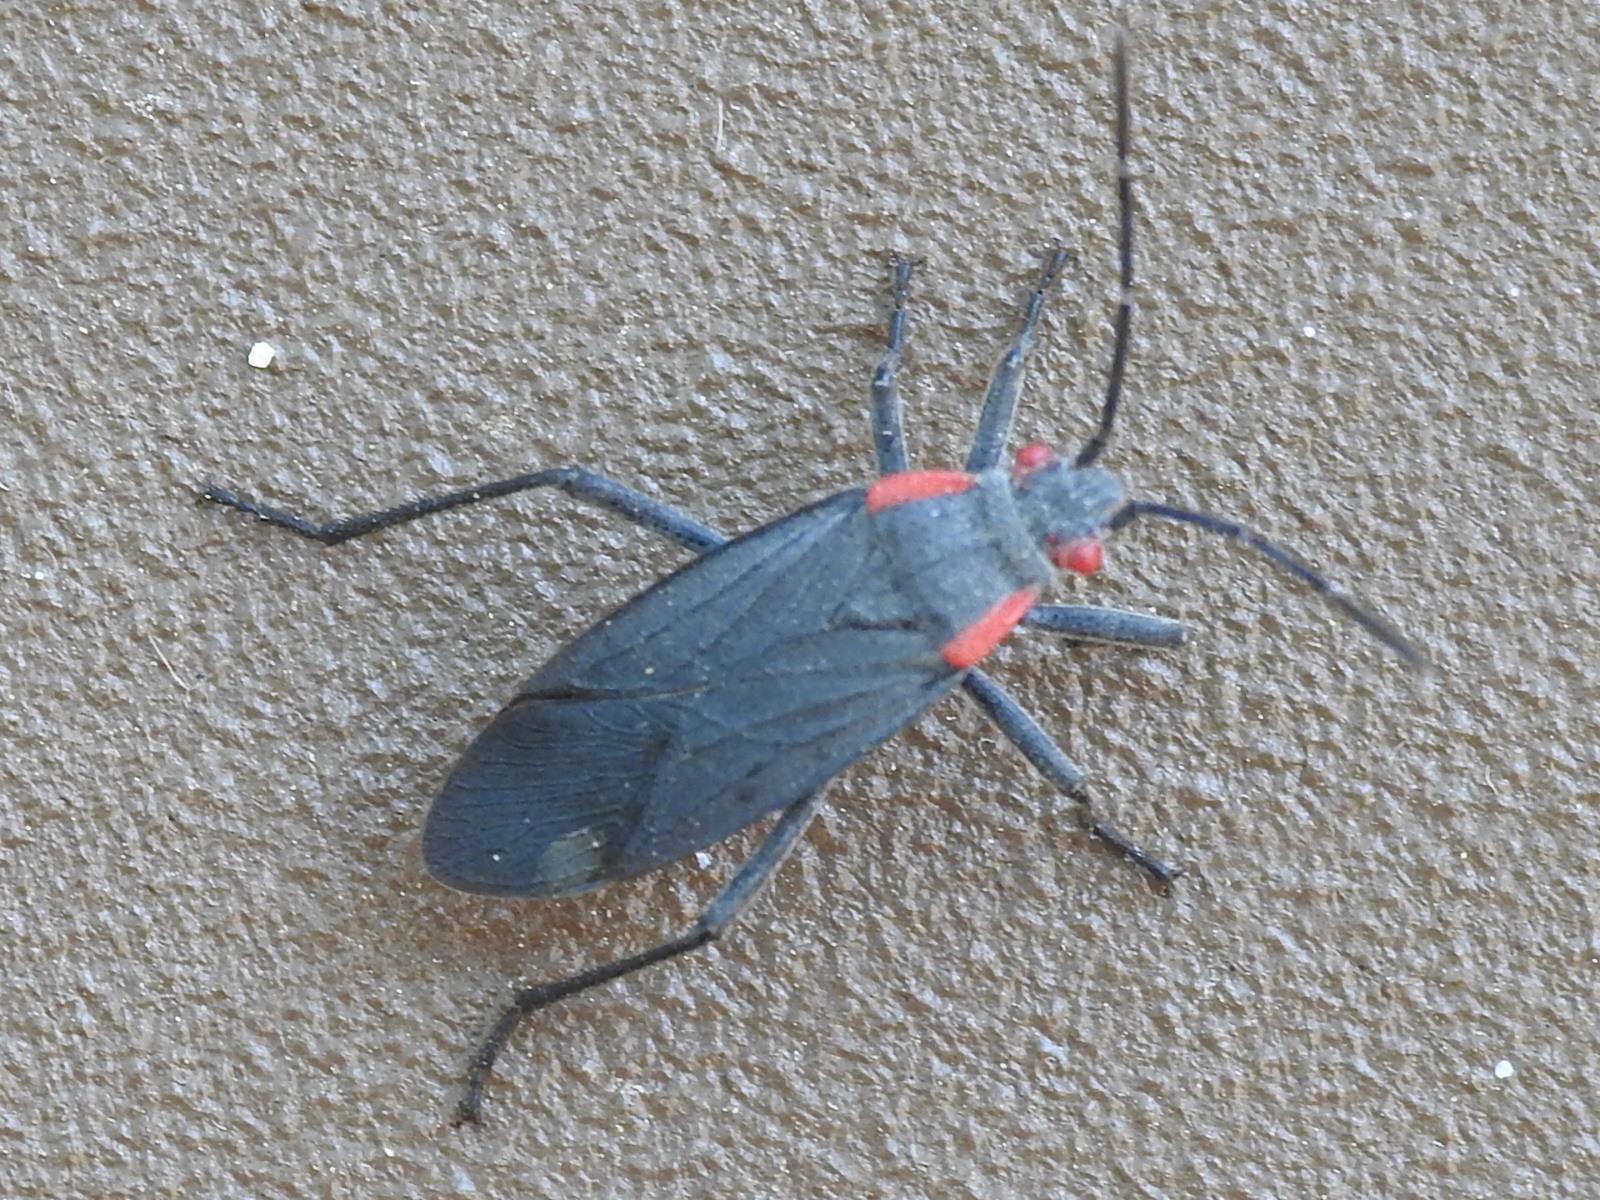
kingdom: Animalia
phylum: Arthropoda
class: Insecta
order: Hemiptera
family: Rhopalidae
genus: Jadera
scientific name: Jadera haematoloma
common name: Red-shouldered bug
